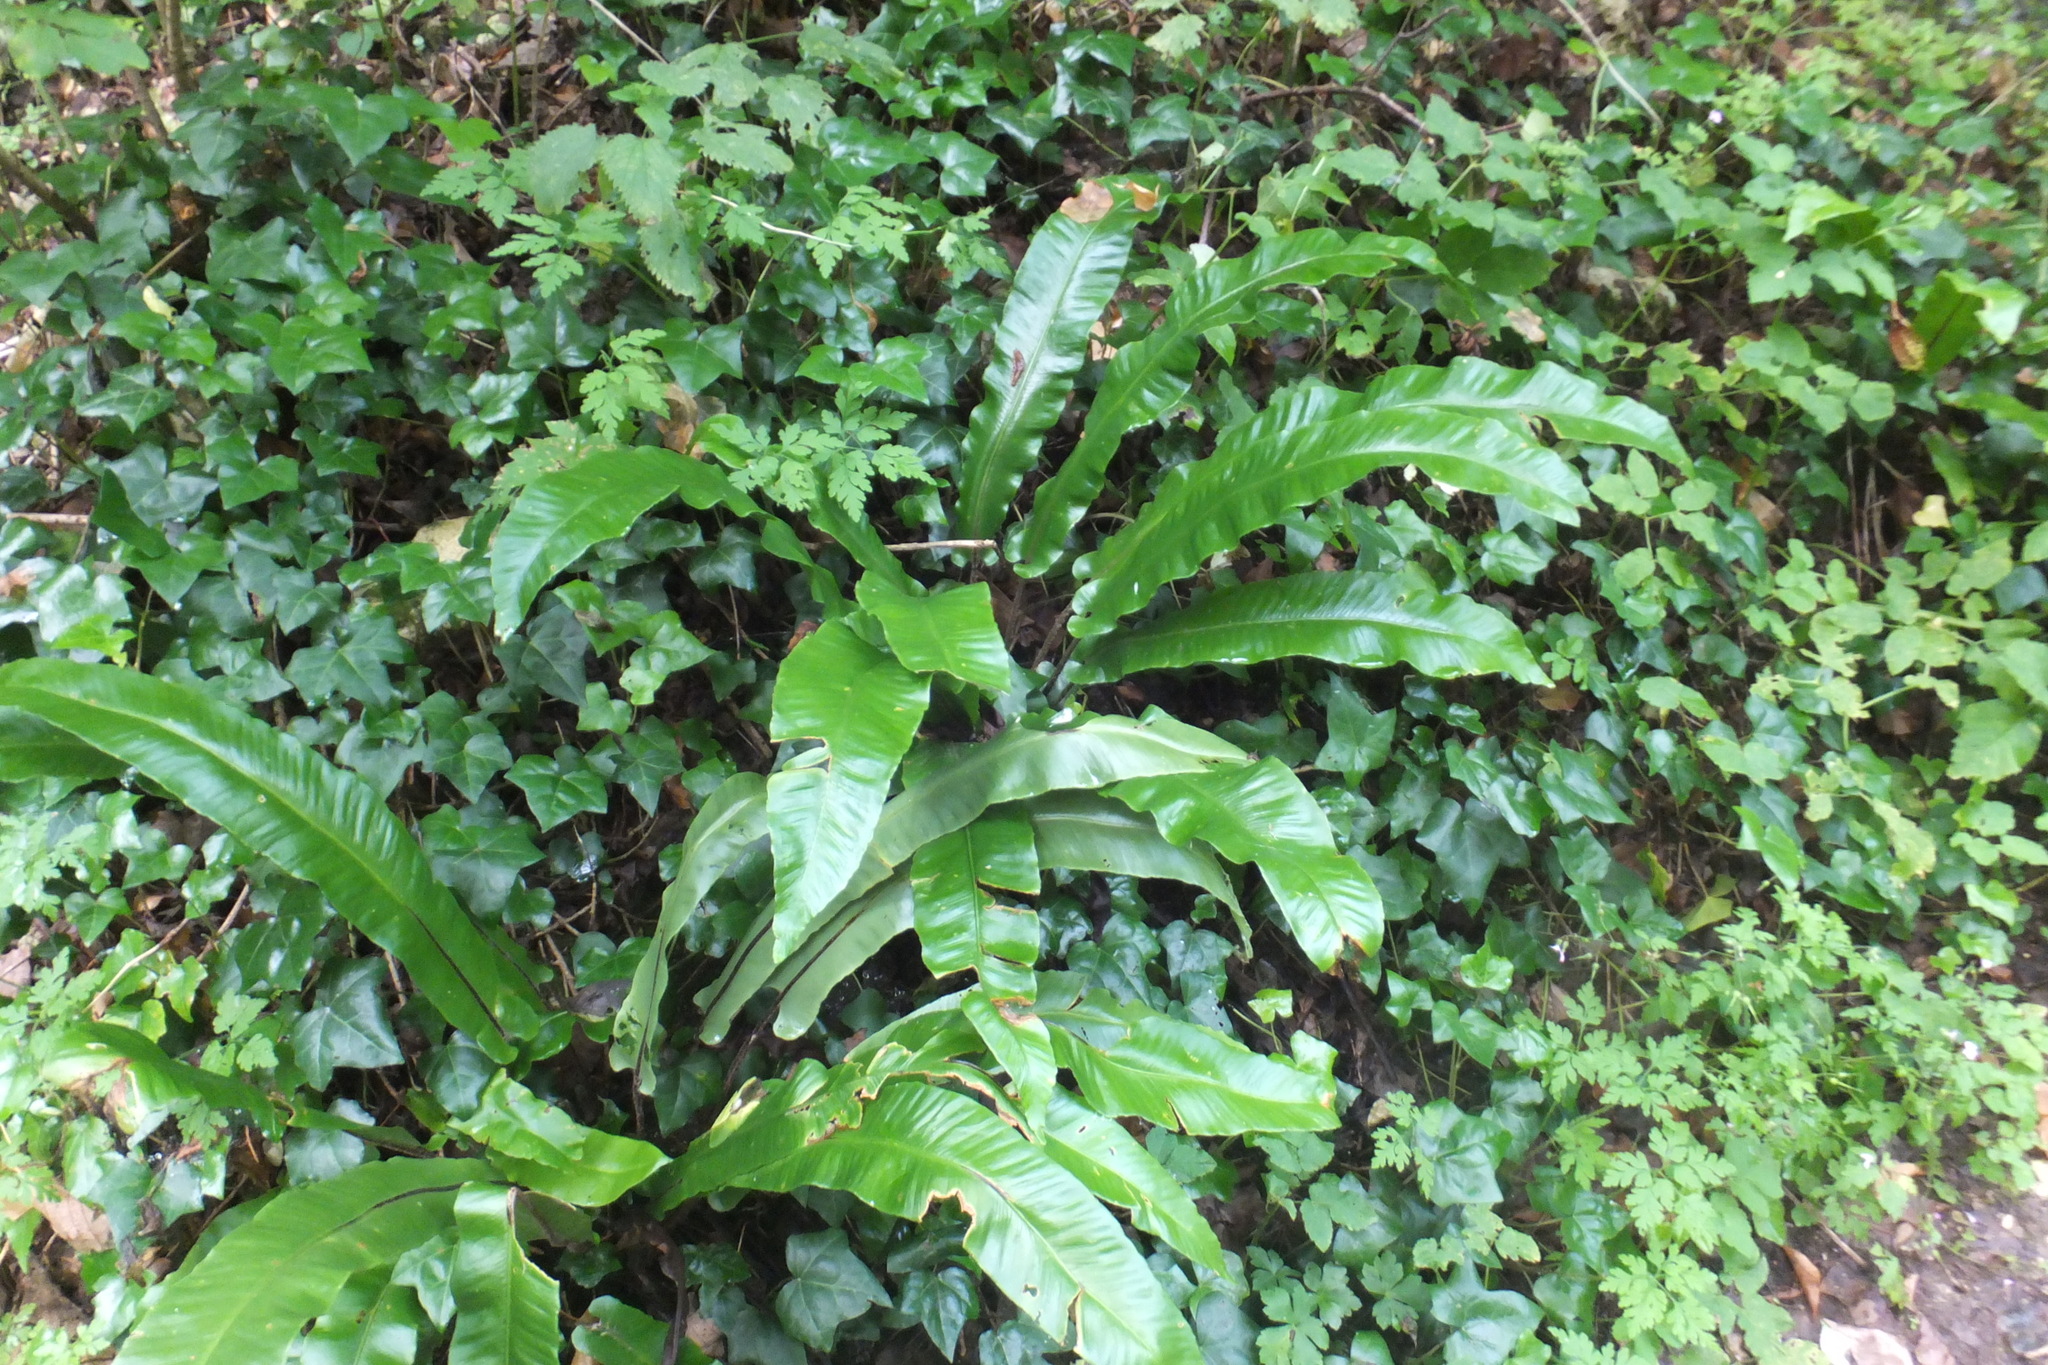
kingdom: Plantae
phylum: Tracheophyta
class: Polypodiopsida
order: Polypodiales
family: Aspleniaceae
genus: Asplenium
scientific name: Asplenium scolopendrium
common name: Hart's-tongue fern
